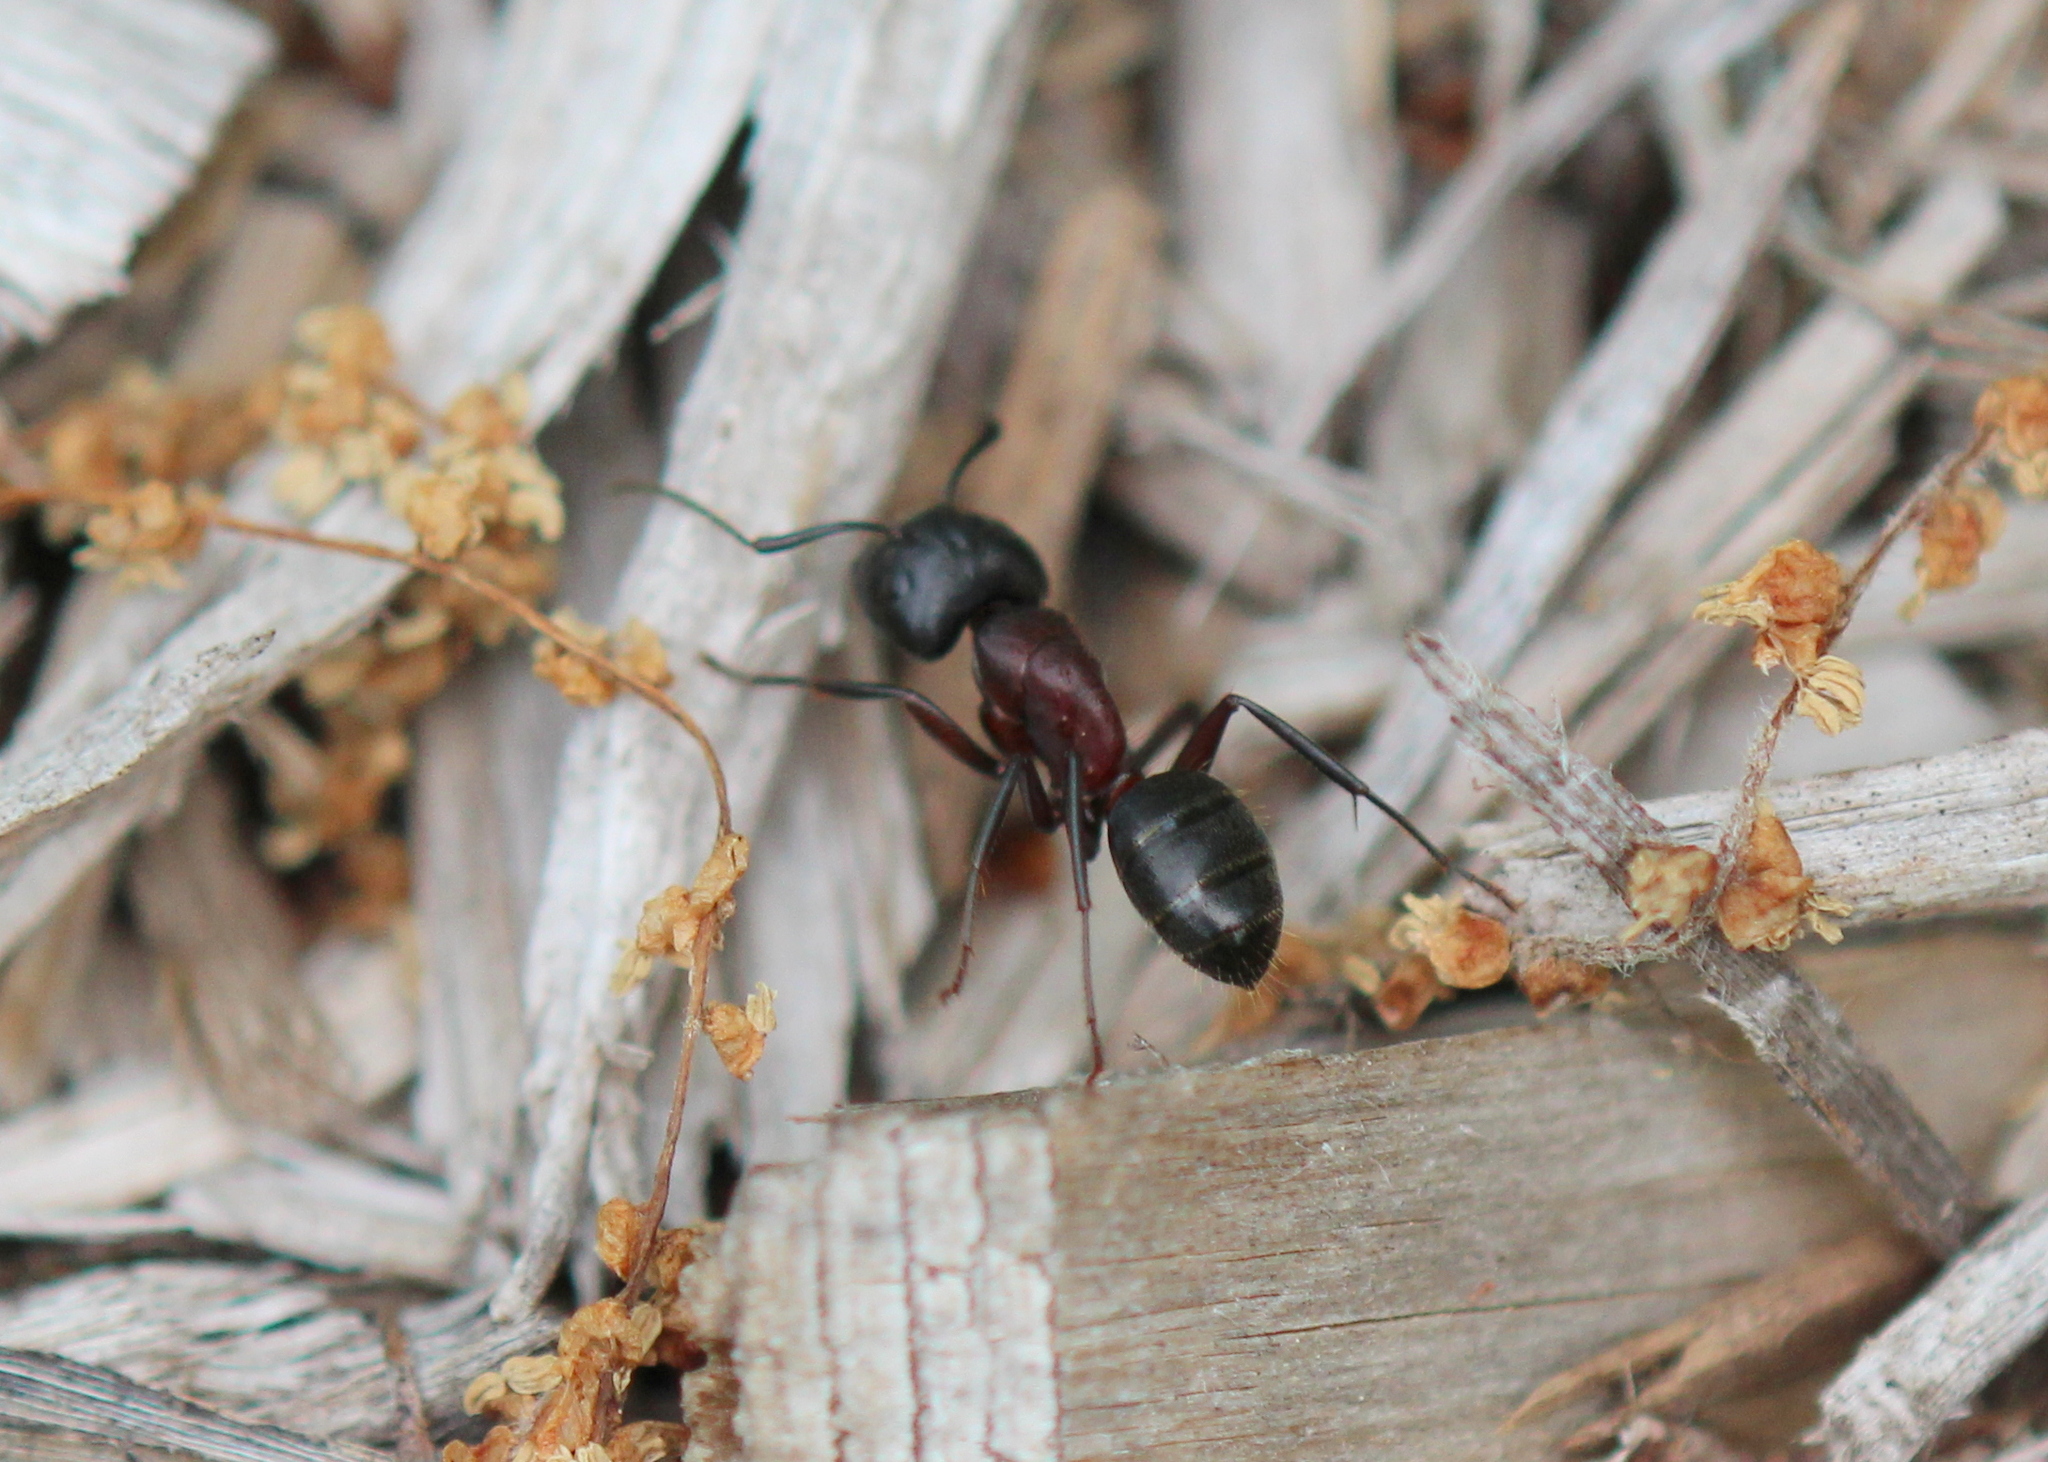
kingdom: Animalia
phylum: Arthropoda
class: Insecta
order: Hymenoptera
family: Formicidae
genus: Camponotus
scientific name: Camponotus novaeboracensis
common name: New york carpenter ant
